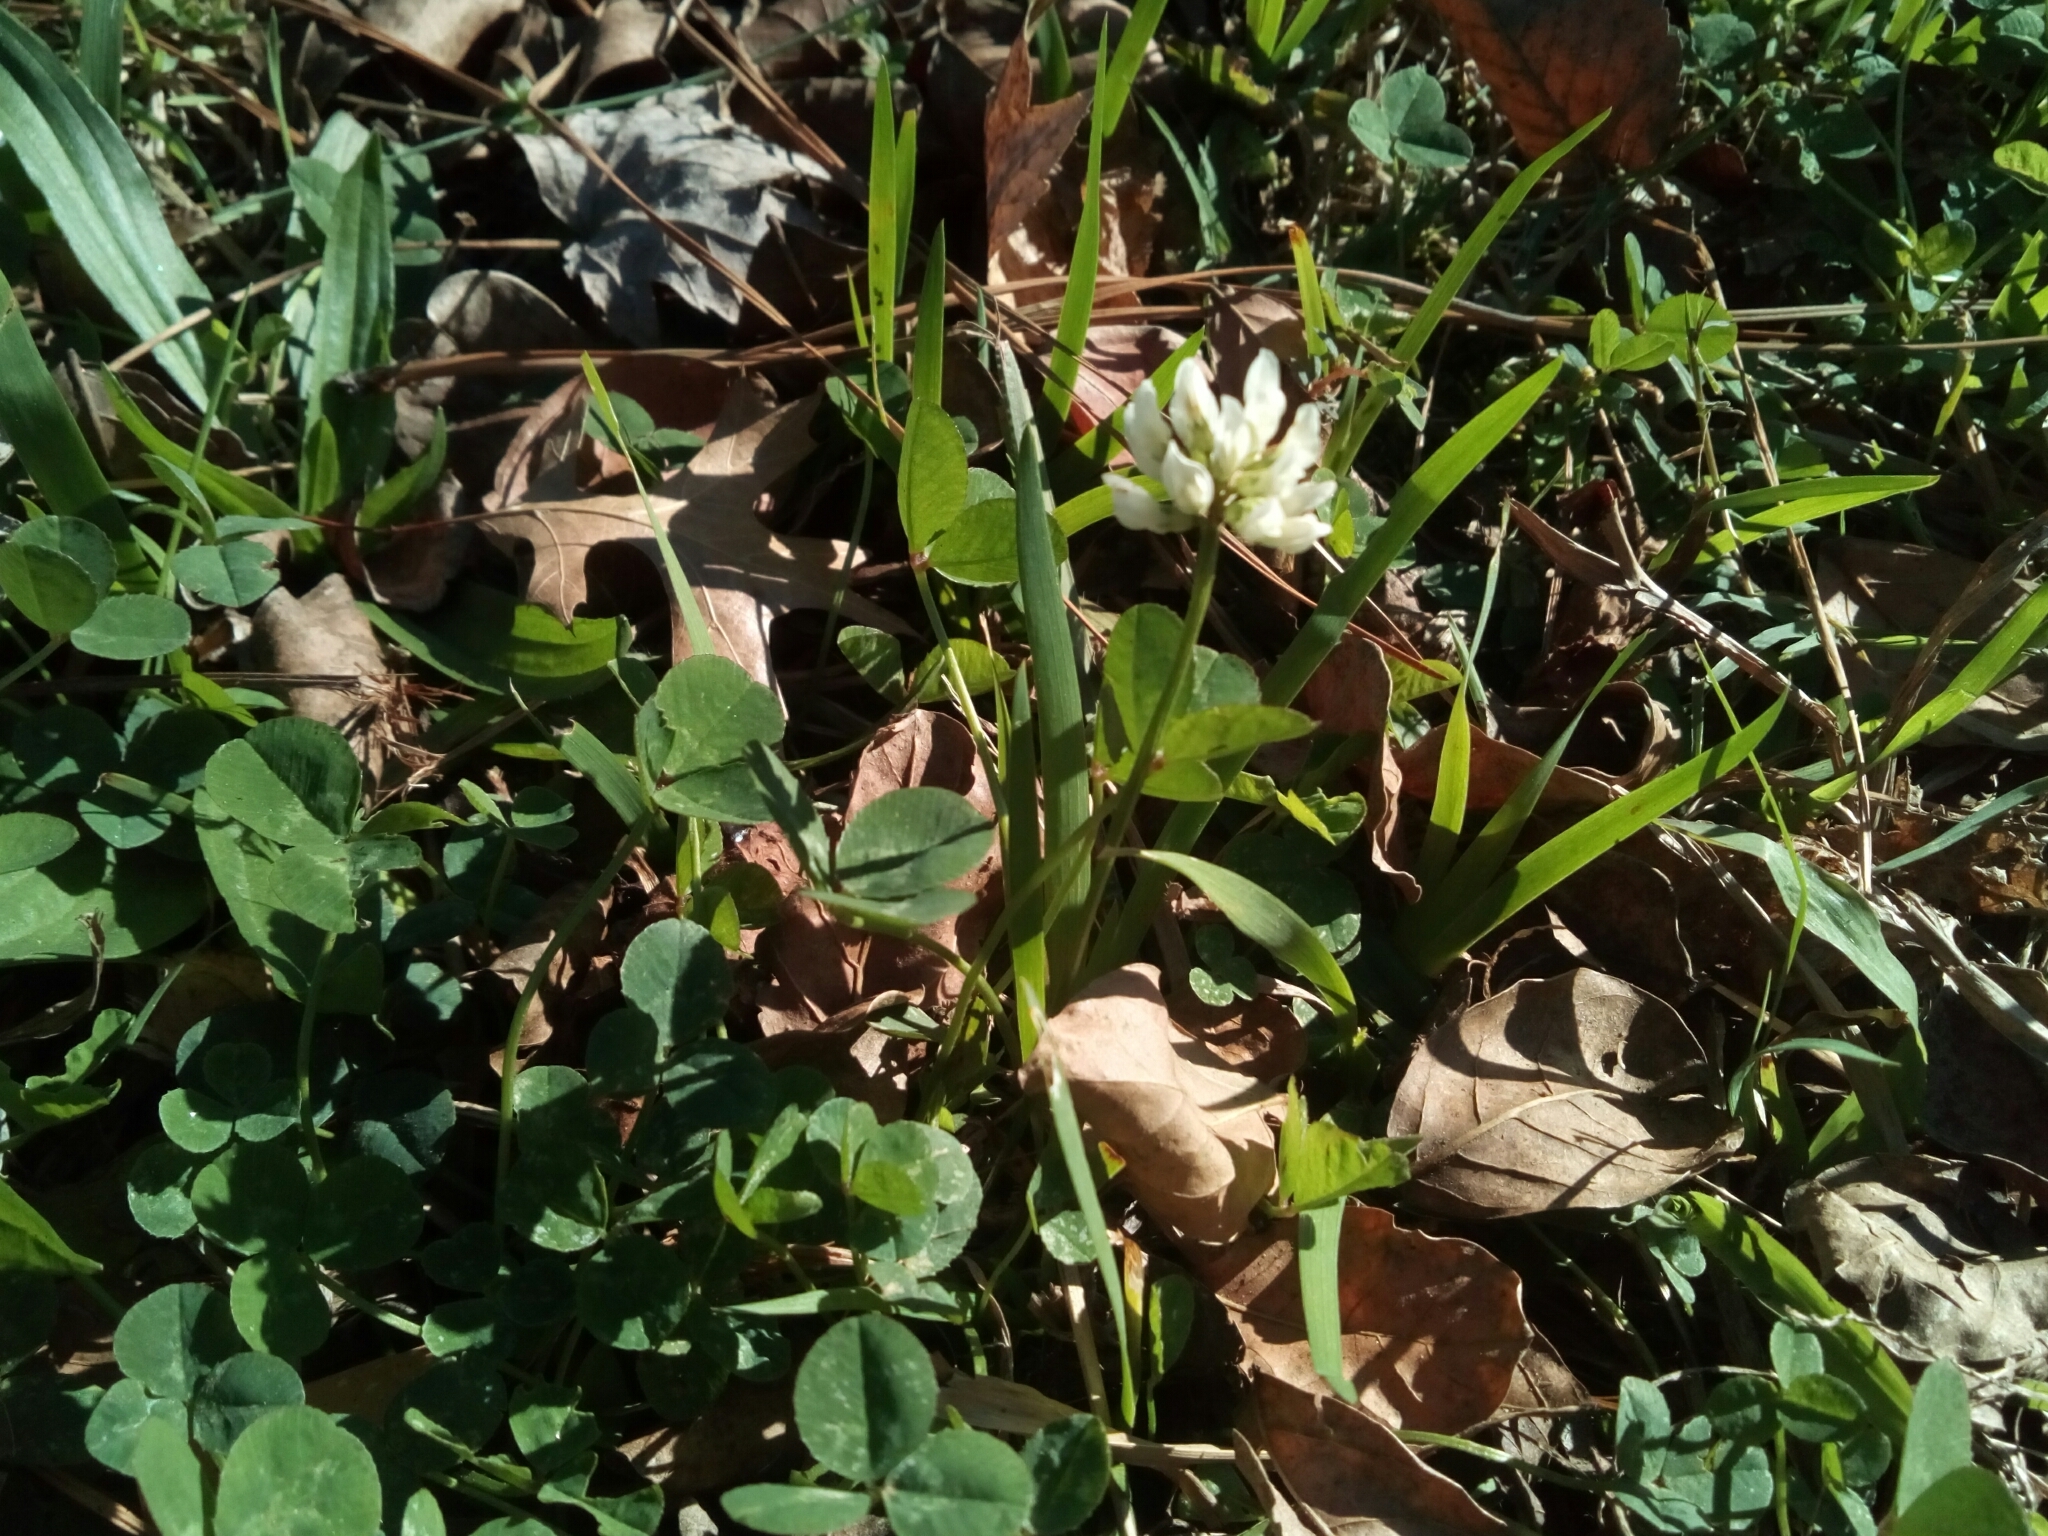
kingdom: Plantae
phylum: Tracheophyta
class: Magnoliopsida
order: Fabales
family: Fabaceae
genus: Trifolium
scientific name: Trifolium repens
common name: White clover
